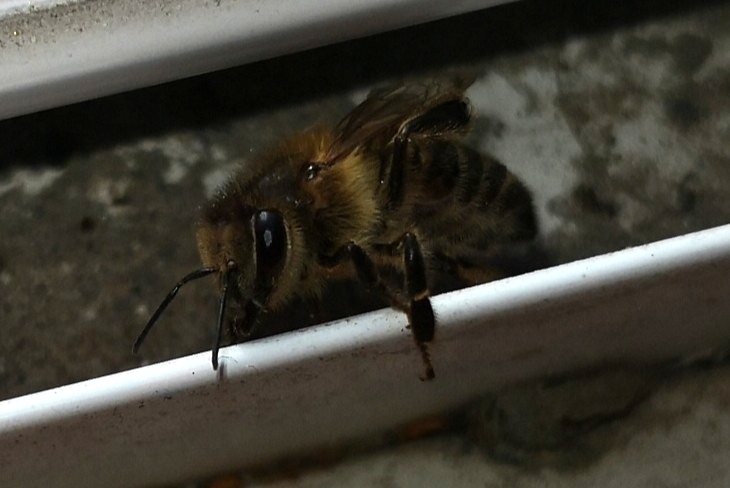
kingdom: Animalia
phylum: Arthropoda
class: Insecta
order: Hymenoptera
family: Apidae
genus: Apis
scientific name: Apis mellifera
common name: Honey bee
